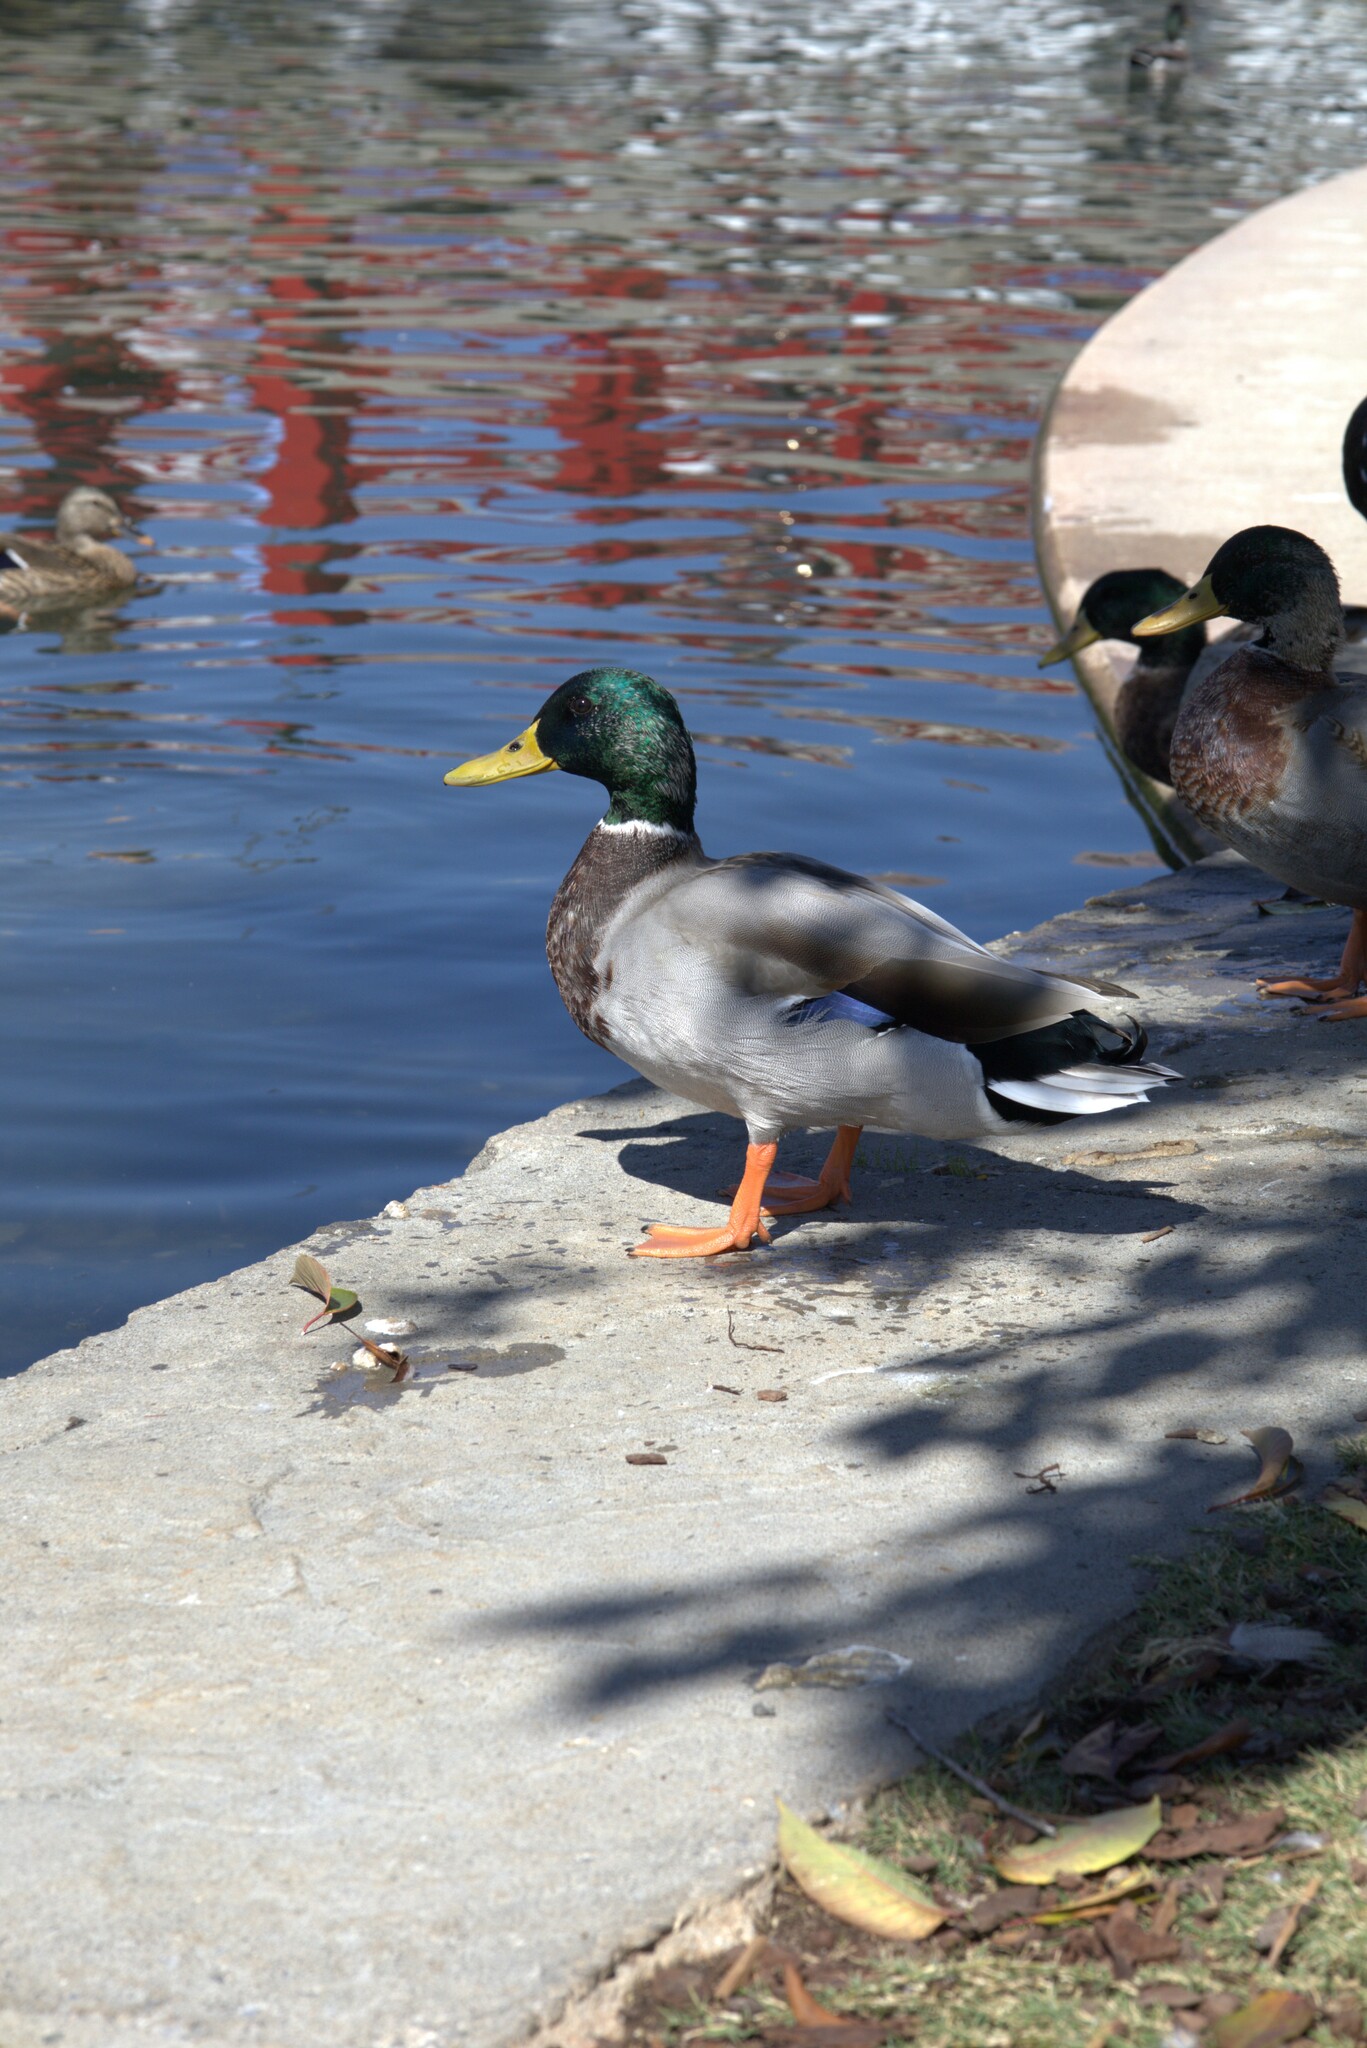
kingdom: Animalia
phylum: Chordata
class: Aves
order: Anseriformes
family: Anatidae
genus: Anas
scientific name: Anas platyrhynchos
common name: Mallard
